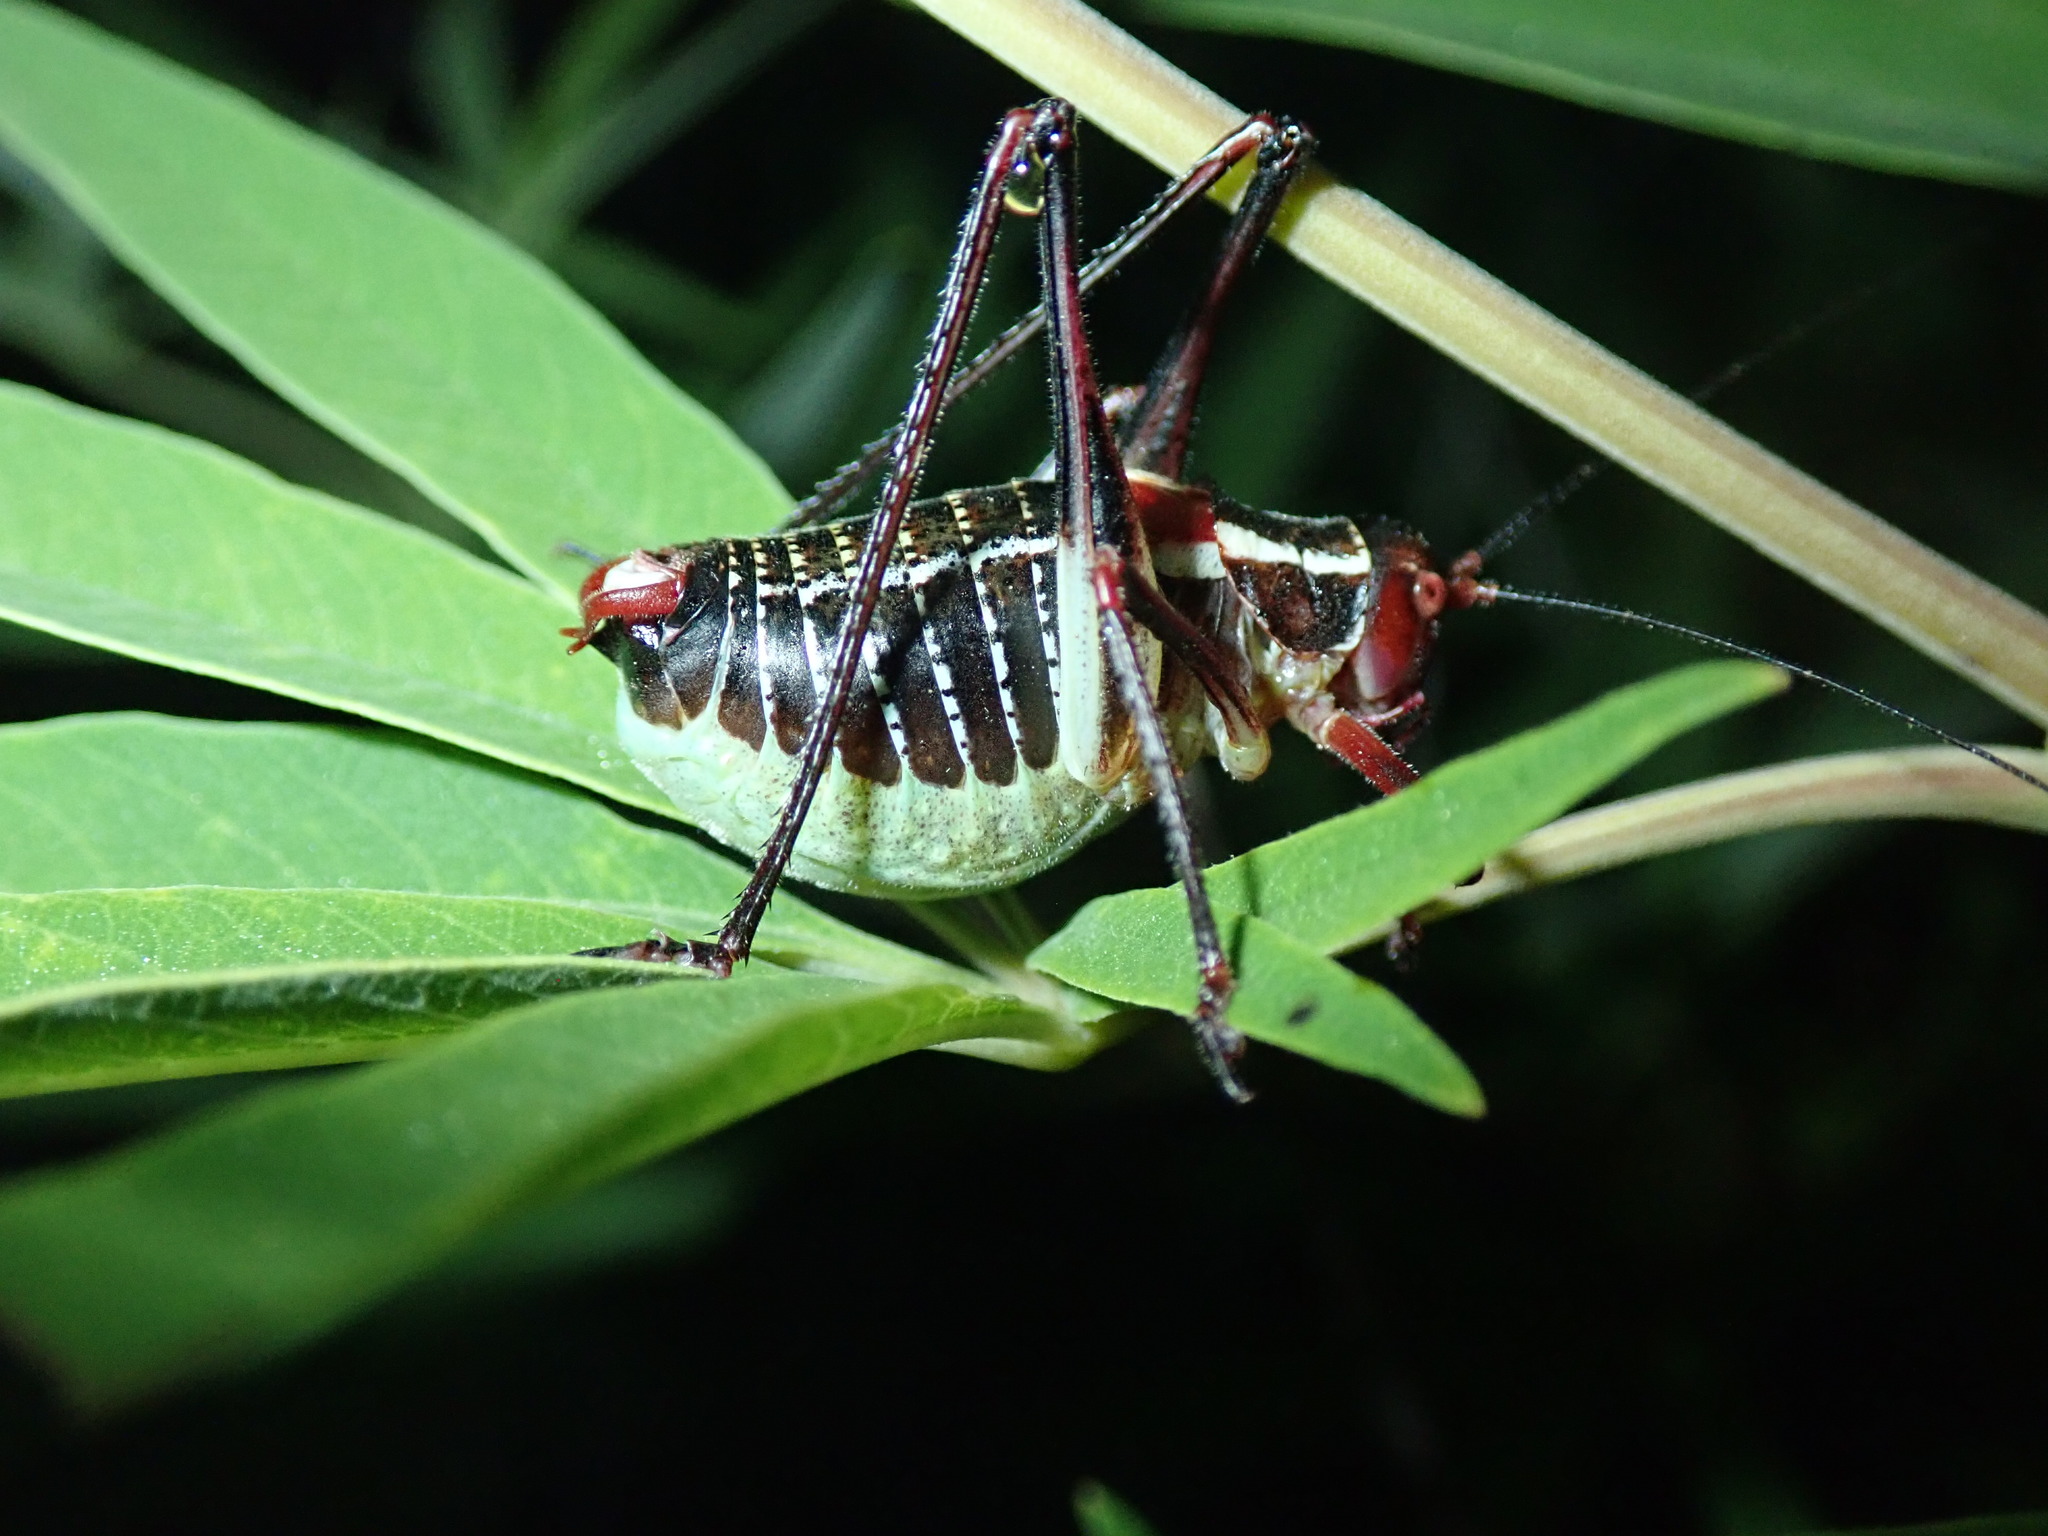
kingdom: Animalia
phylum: Arthropoda
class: Insecta
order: Orthoptera
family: Tettigoniidae
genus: Barbitistes
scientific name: Barbitistes ocskayi
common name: Black saw bush-cricket
